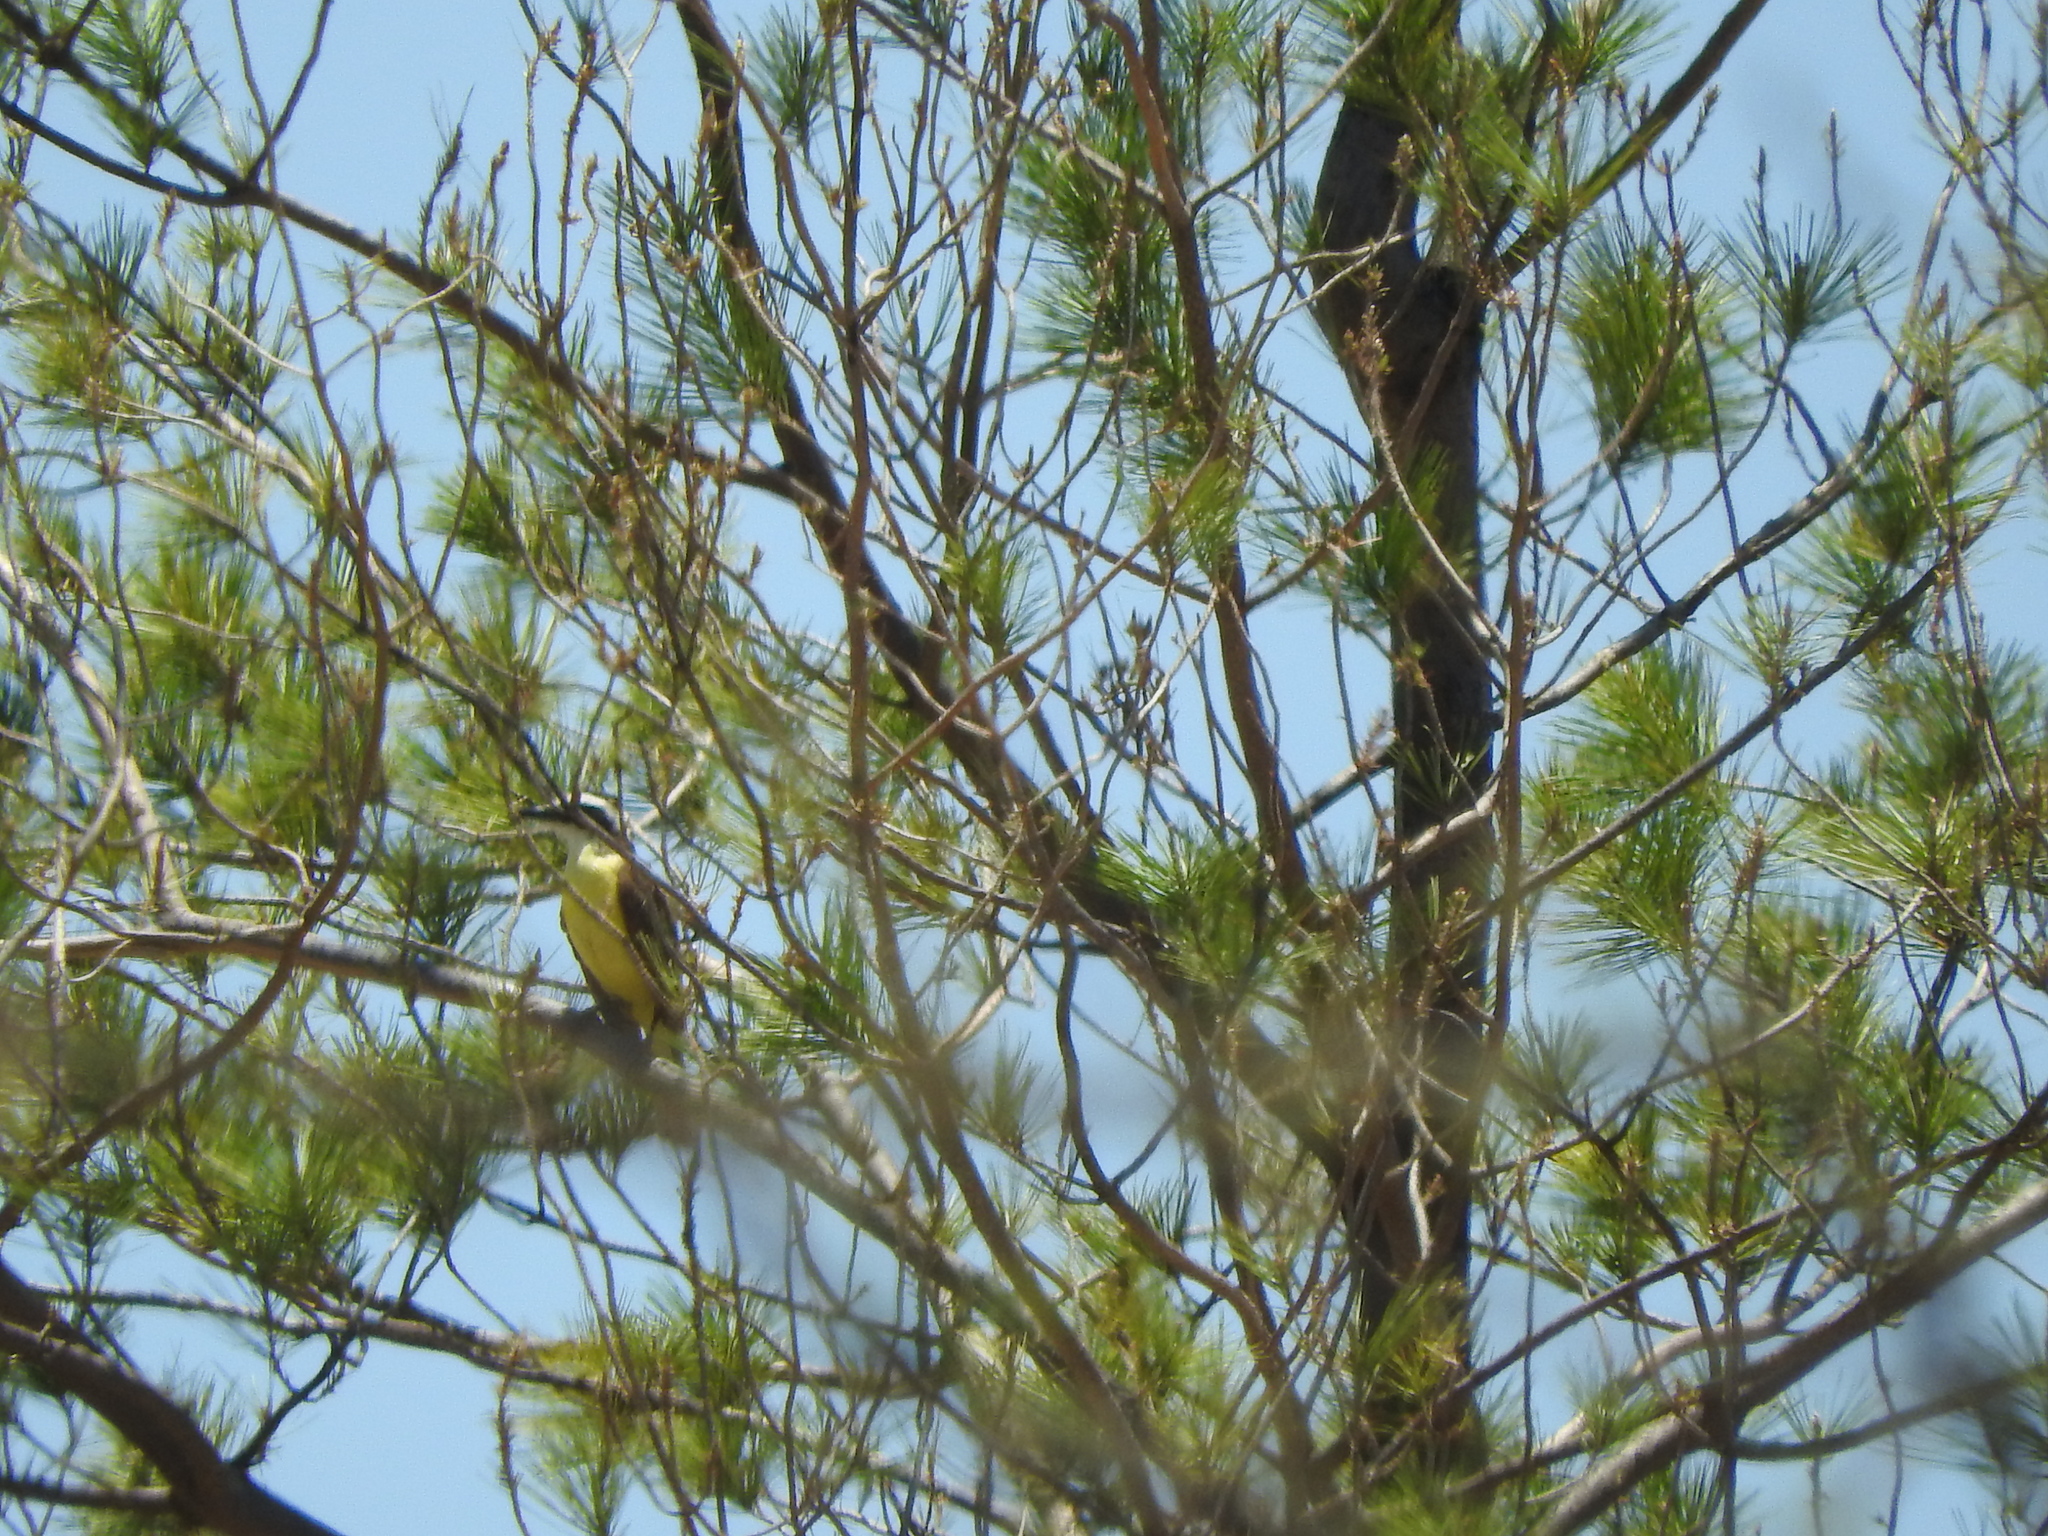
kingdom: Animalia
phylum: Chordata
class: Aves
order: Passeriformes
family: Tyrannidae
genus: Pitangus
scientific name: Pitangus sulphuratus
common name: Great kiskadee
